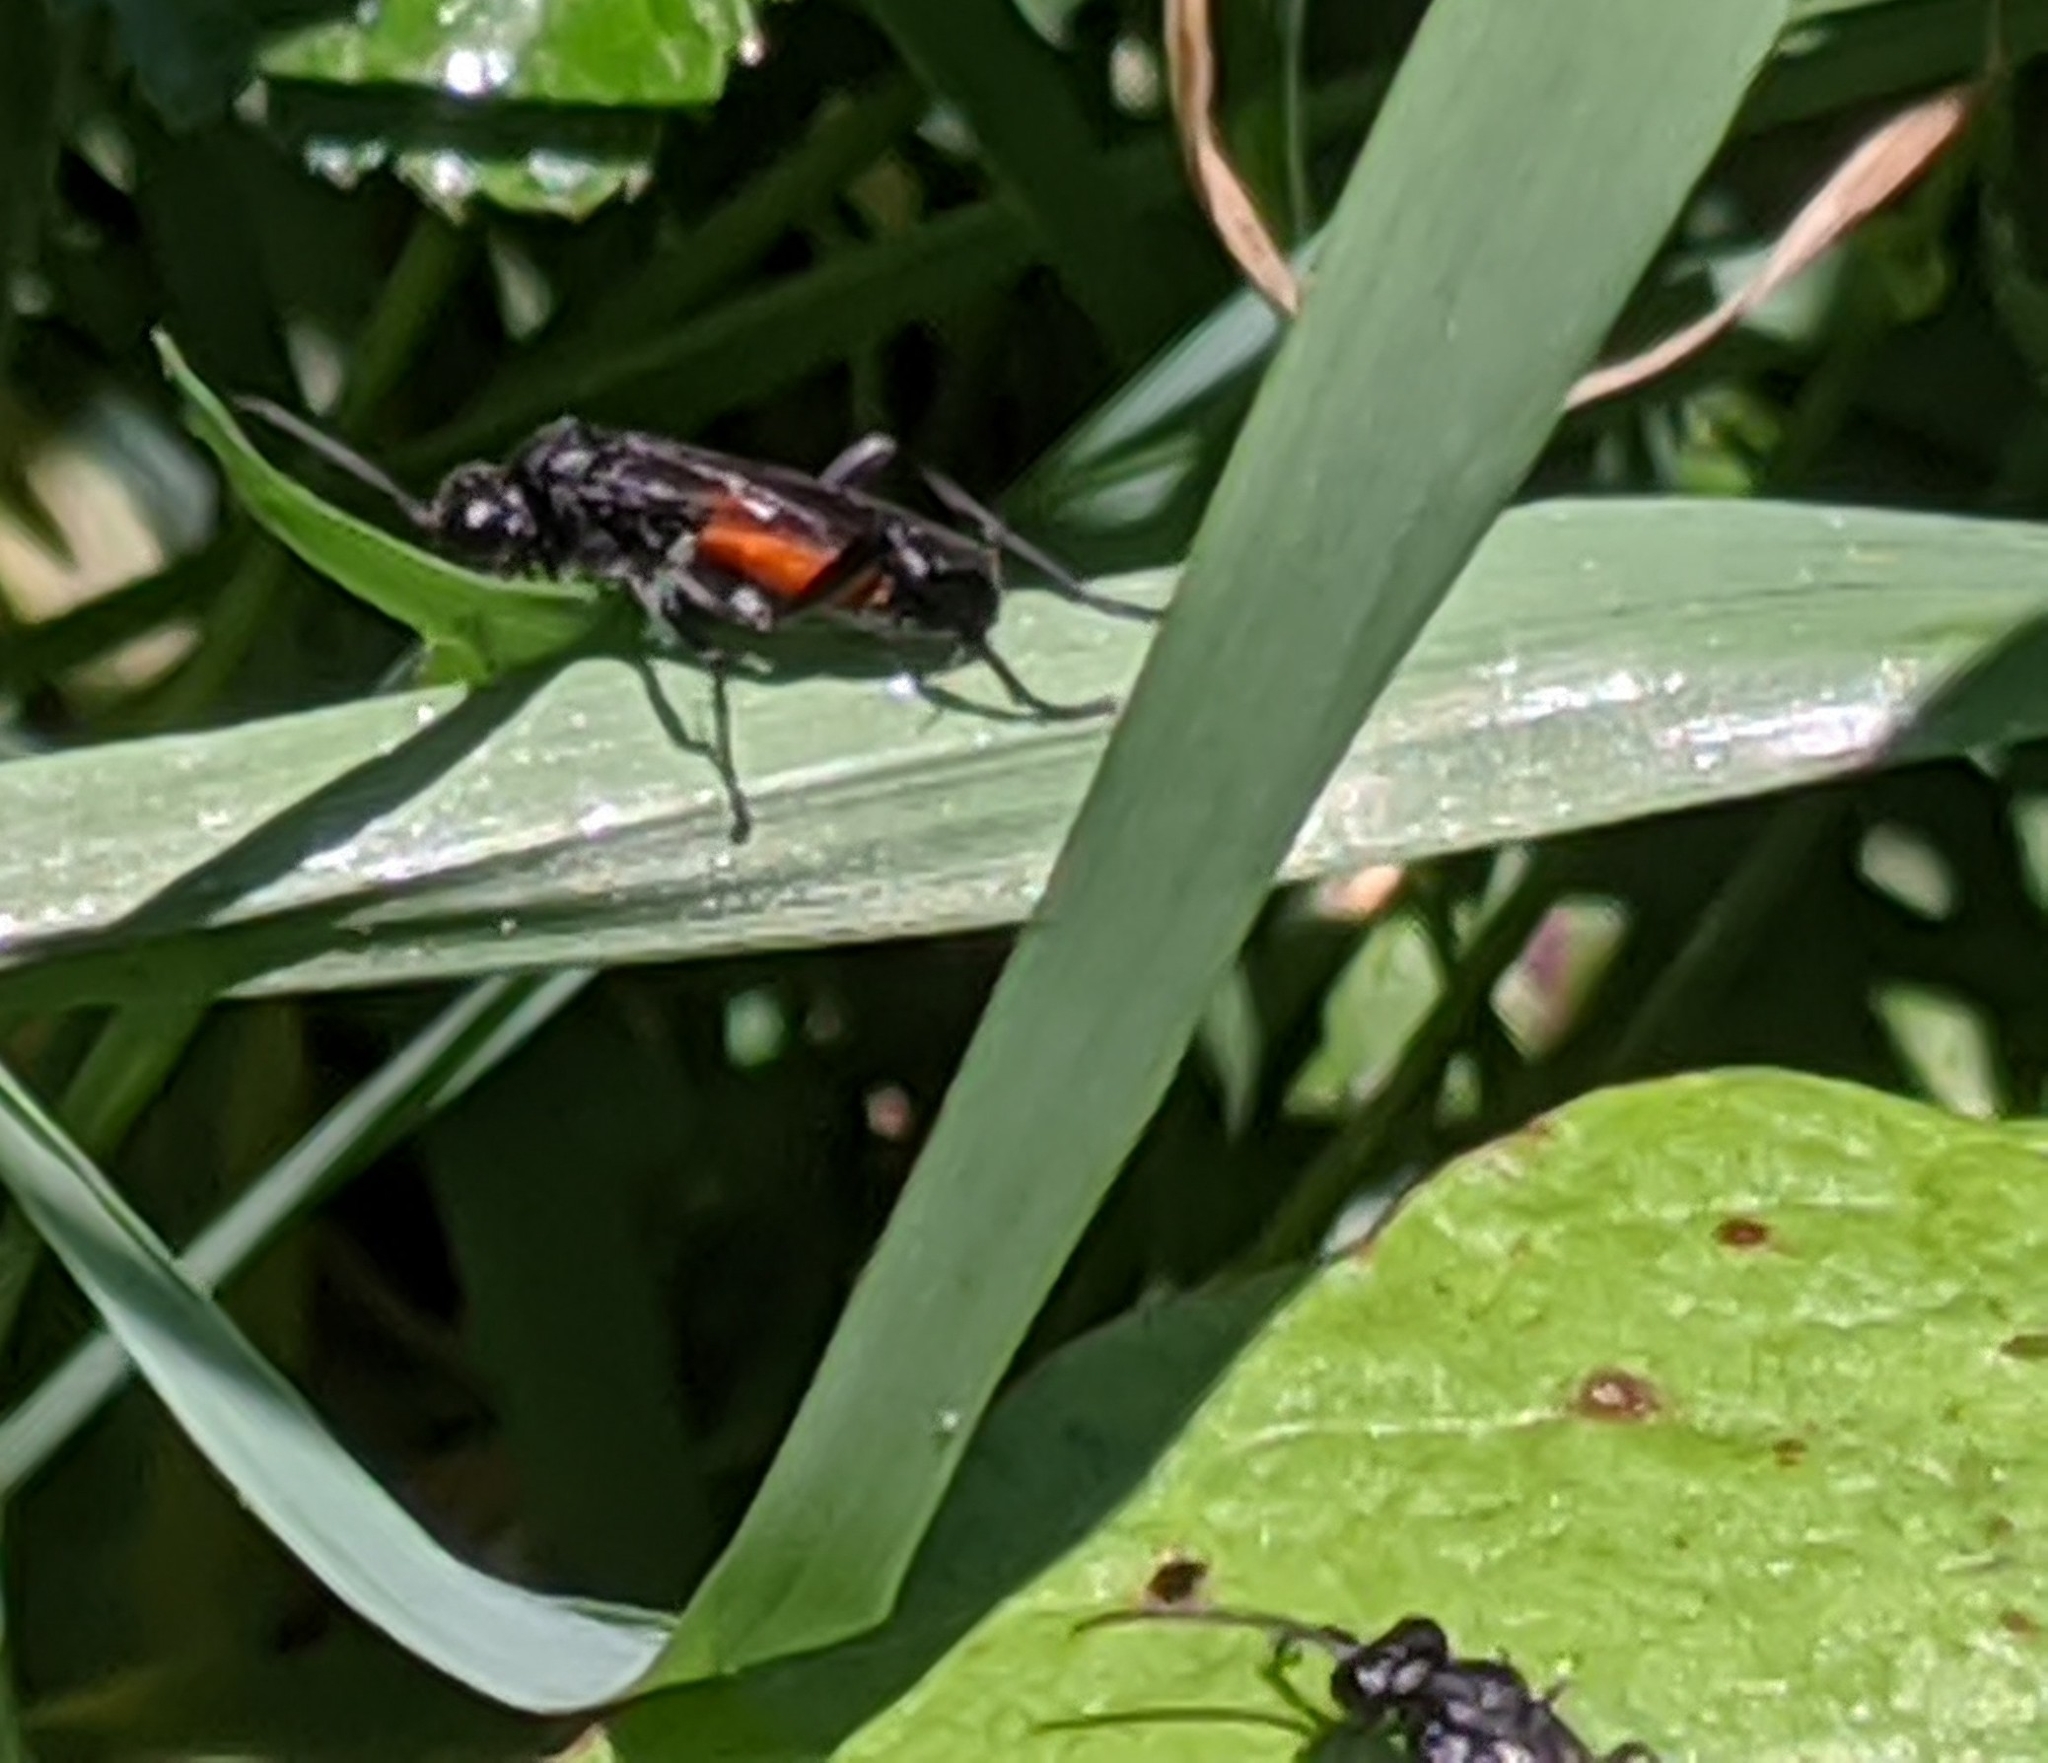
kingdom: Animalia
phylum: Arthropoda
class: Insecta
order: Hymenoptera
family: Tenthredinidae
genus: Macrophya
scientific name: Macrophya annulata
